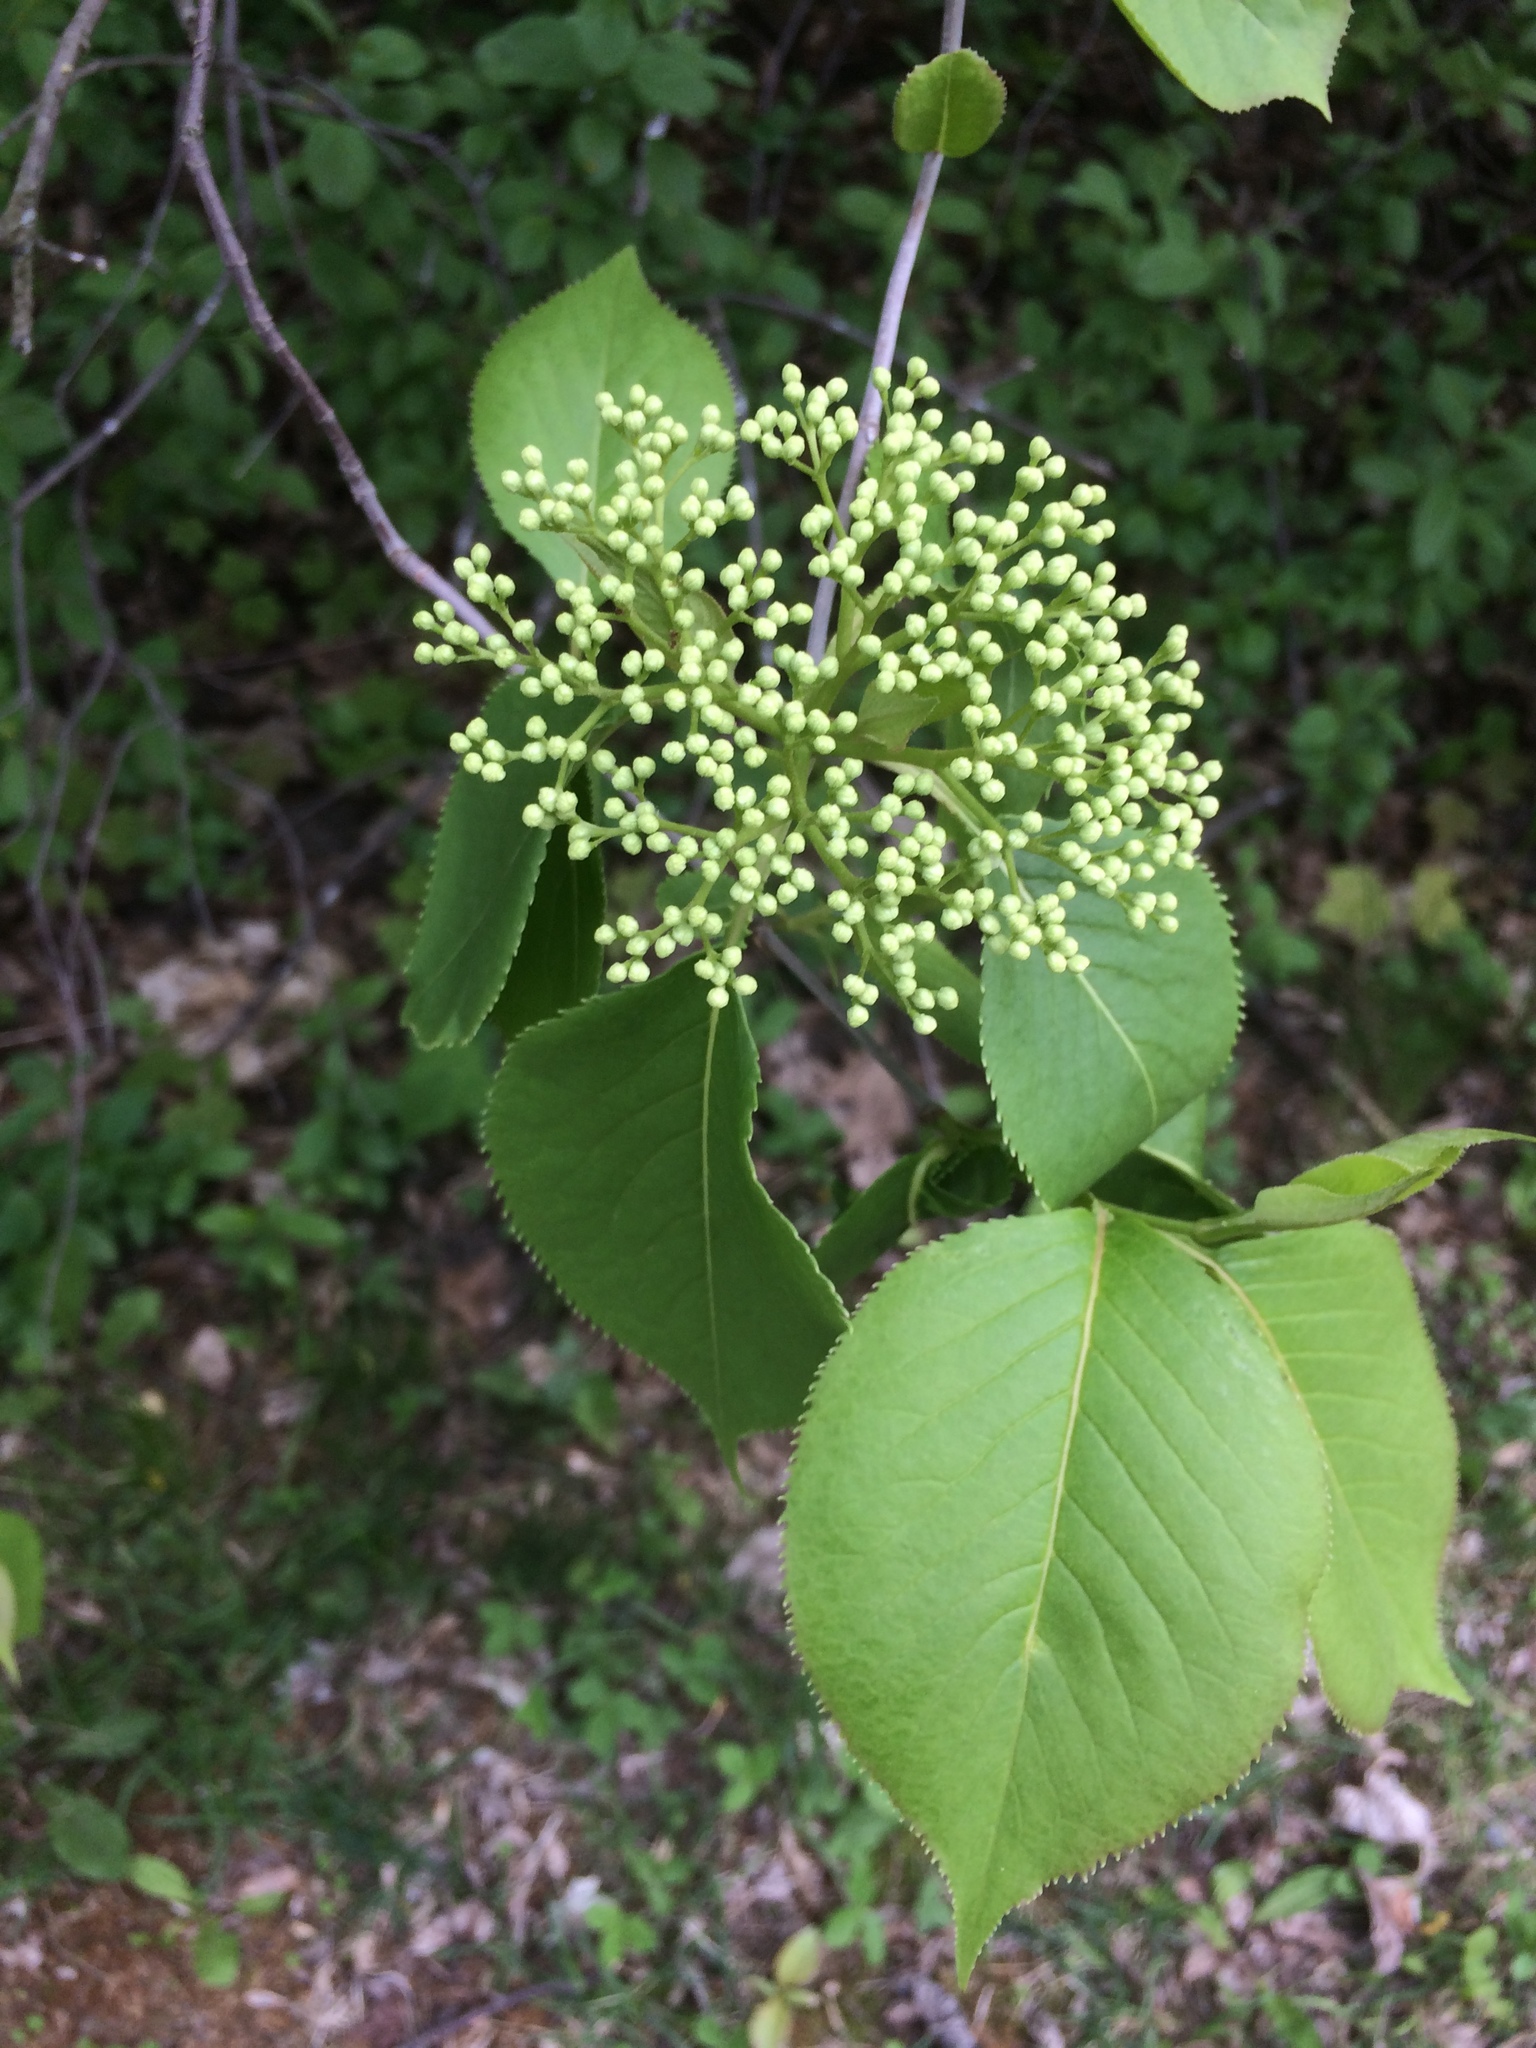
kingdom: Plantae
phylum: Tracheophyta
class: Magnoliopsida
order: Dipsacales
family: Viburnaceae
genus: Viburnum
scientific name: Viburnum lentago
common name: Black haw
